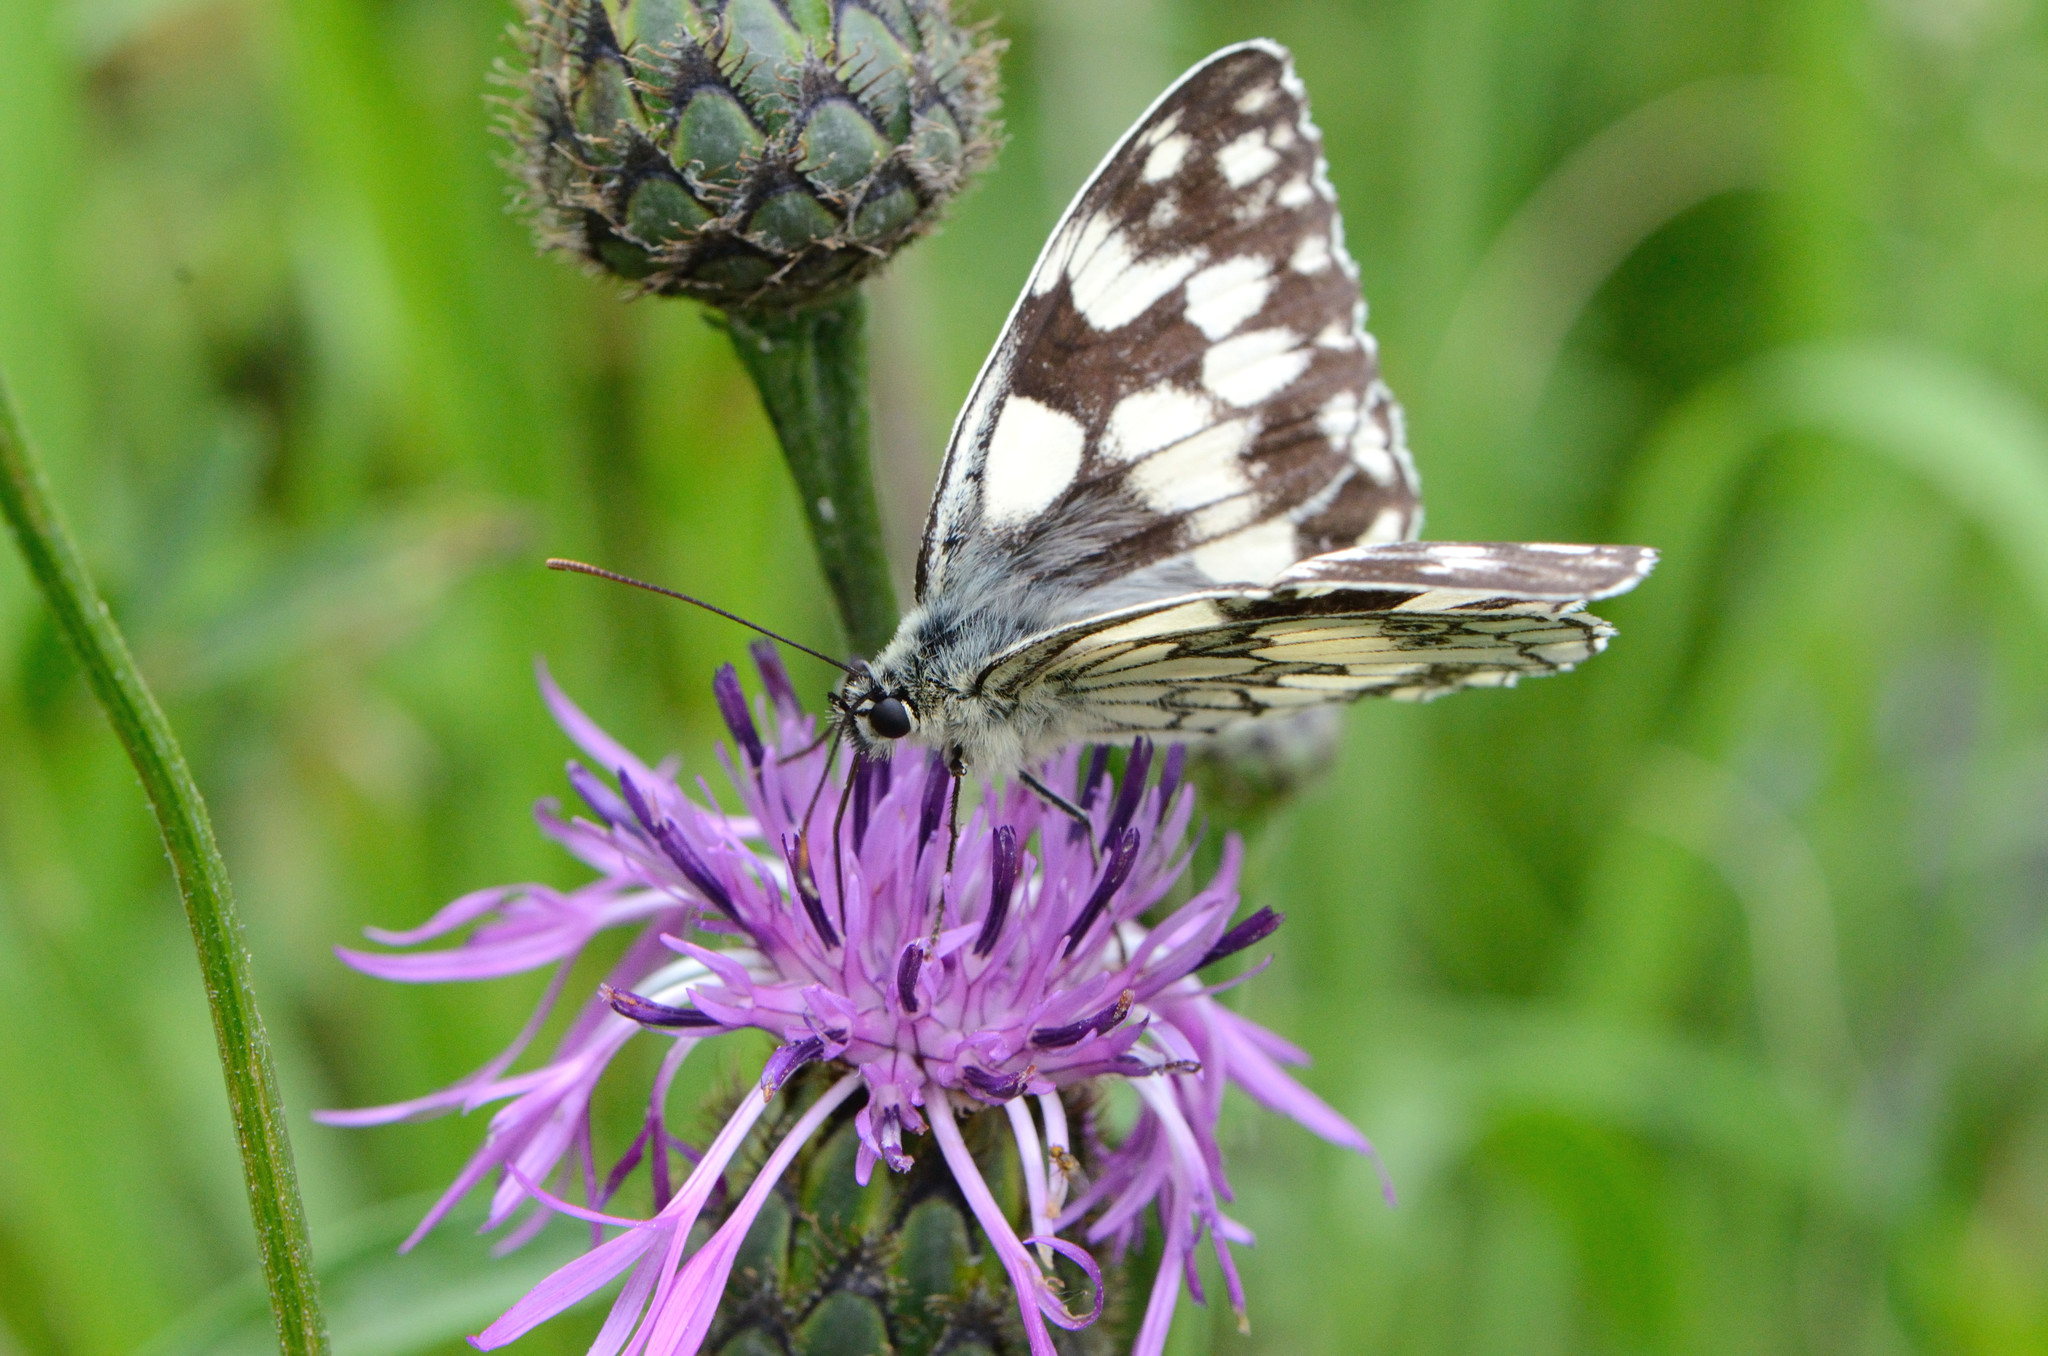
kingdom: Animalia
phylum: Arthropoda
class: Insecta
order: Lepidoptera
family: Nymphalidae
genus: Melanargia
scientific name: Melanargia galathea
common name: Marbled white
